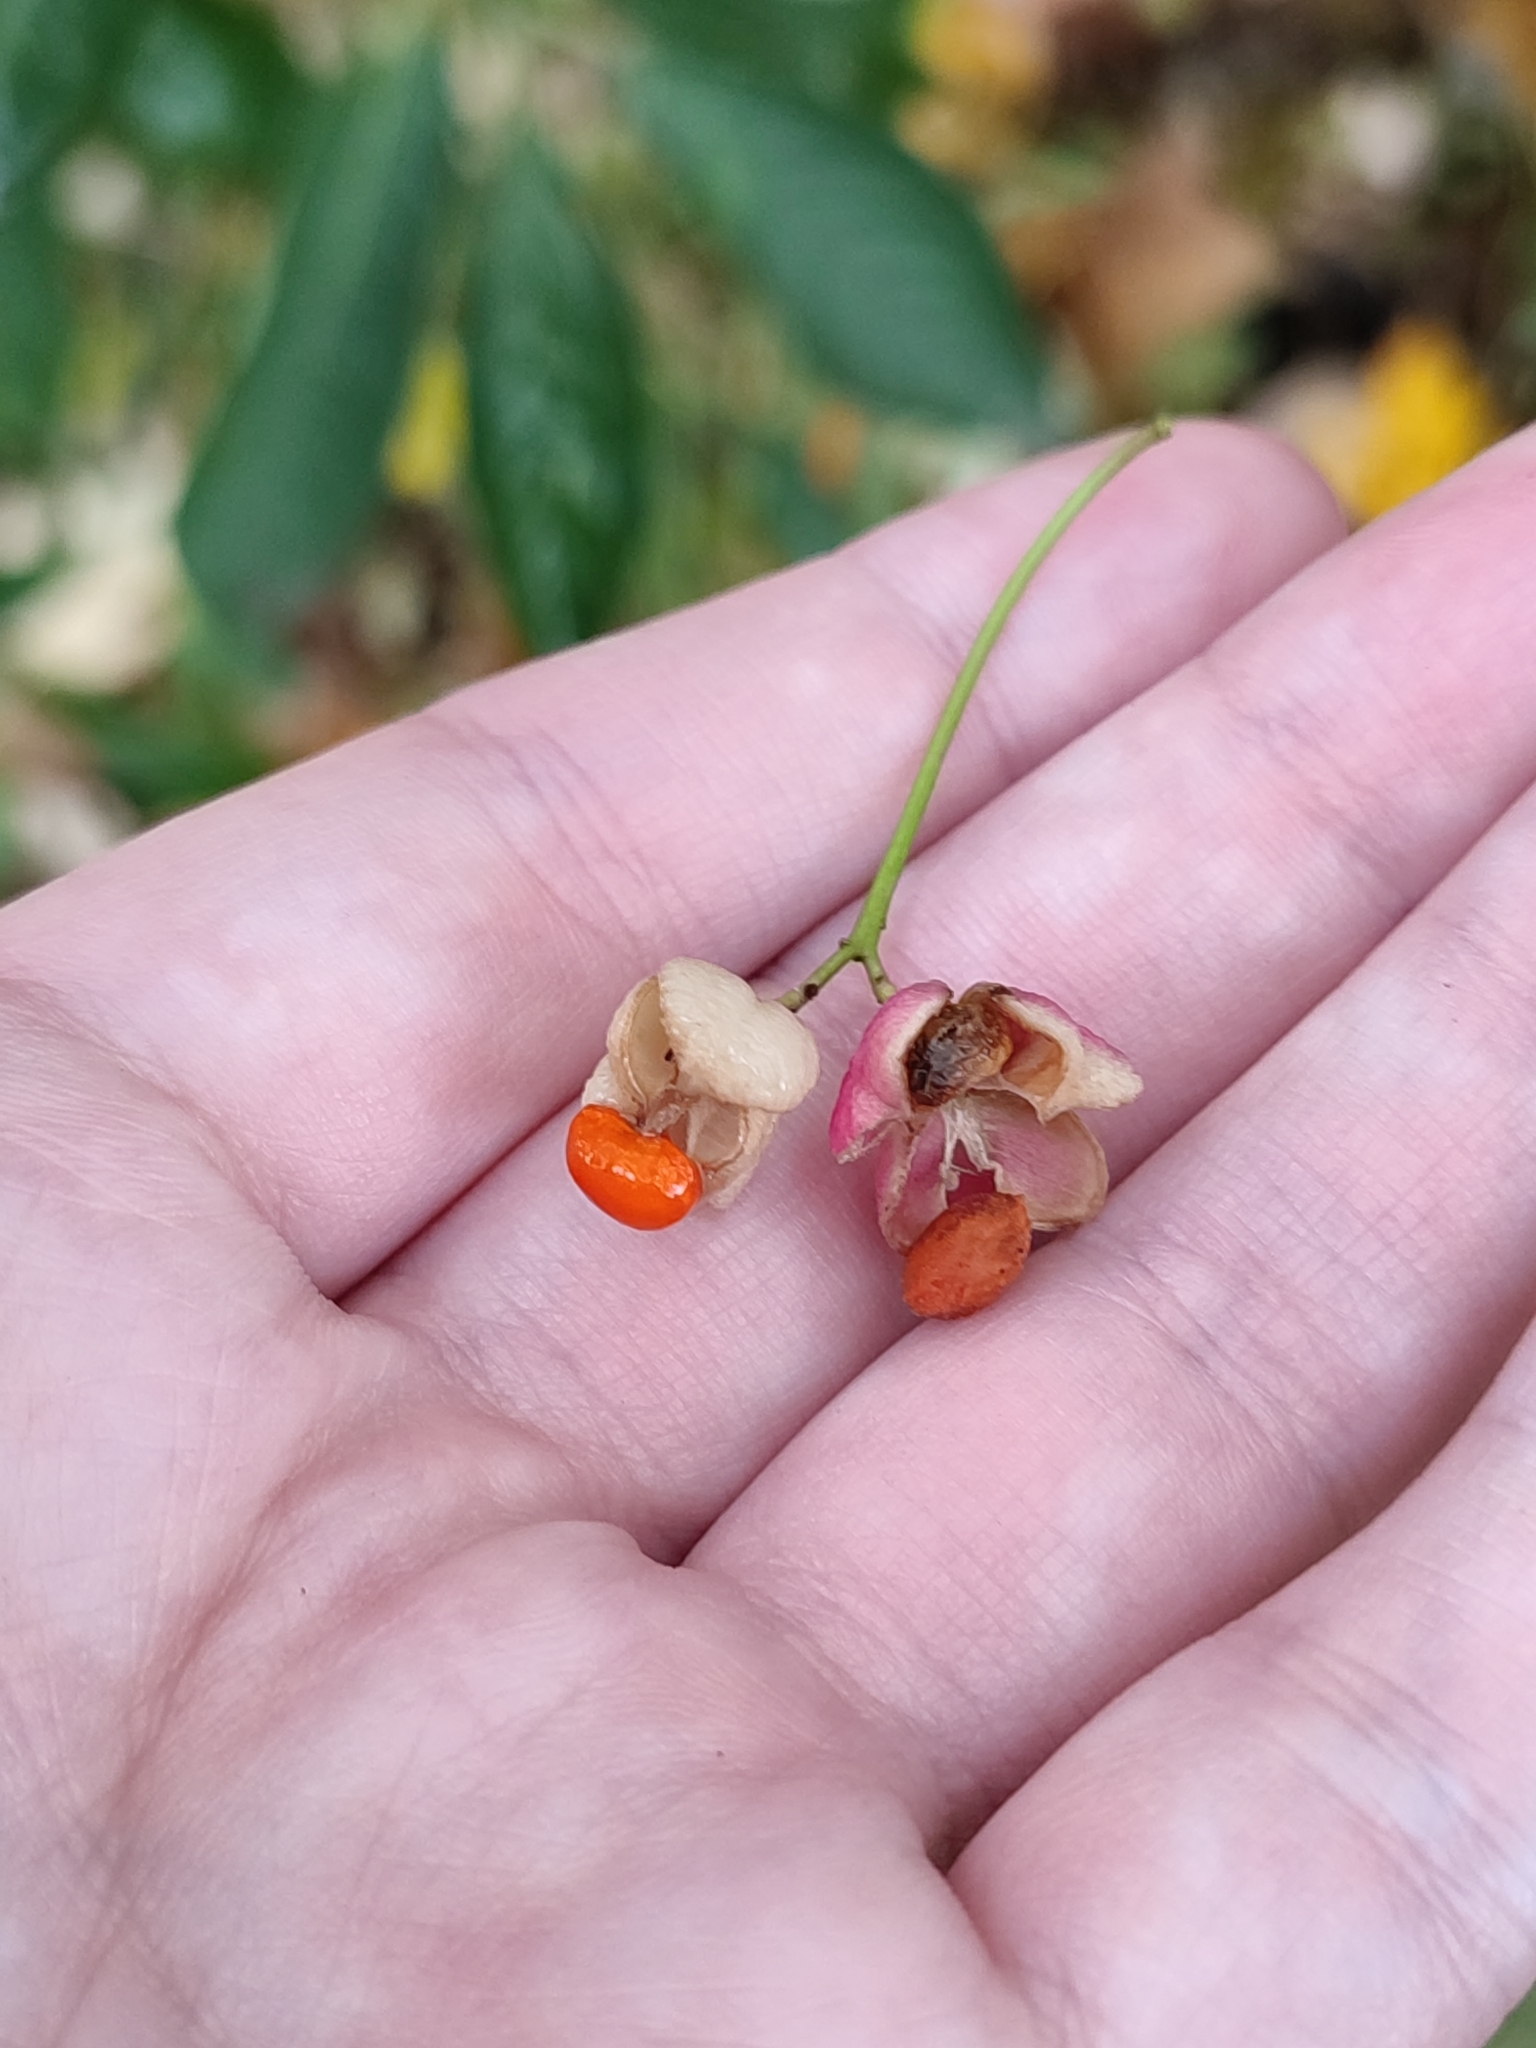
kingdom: Plantae
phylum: Tracheophyta
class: Magnoliopsida
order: Celastrales
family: Celastraceae
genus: Euonymus
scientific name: Euonymus europaeus
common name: Spindle
